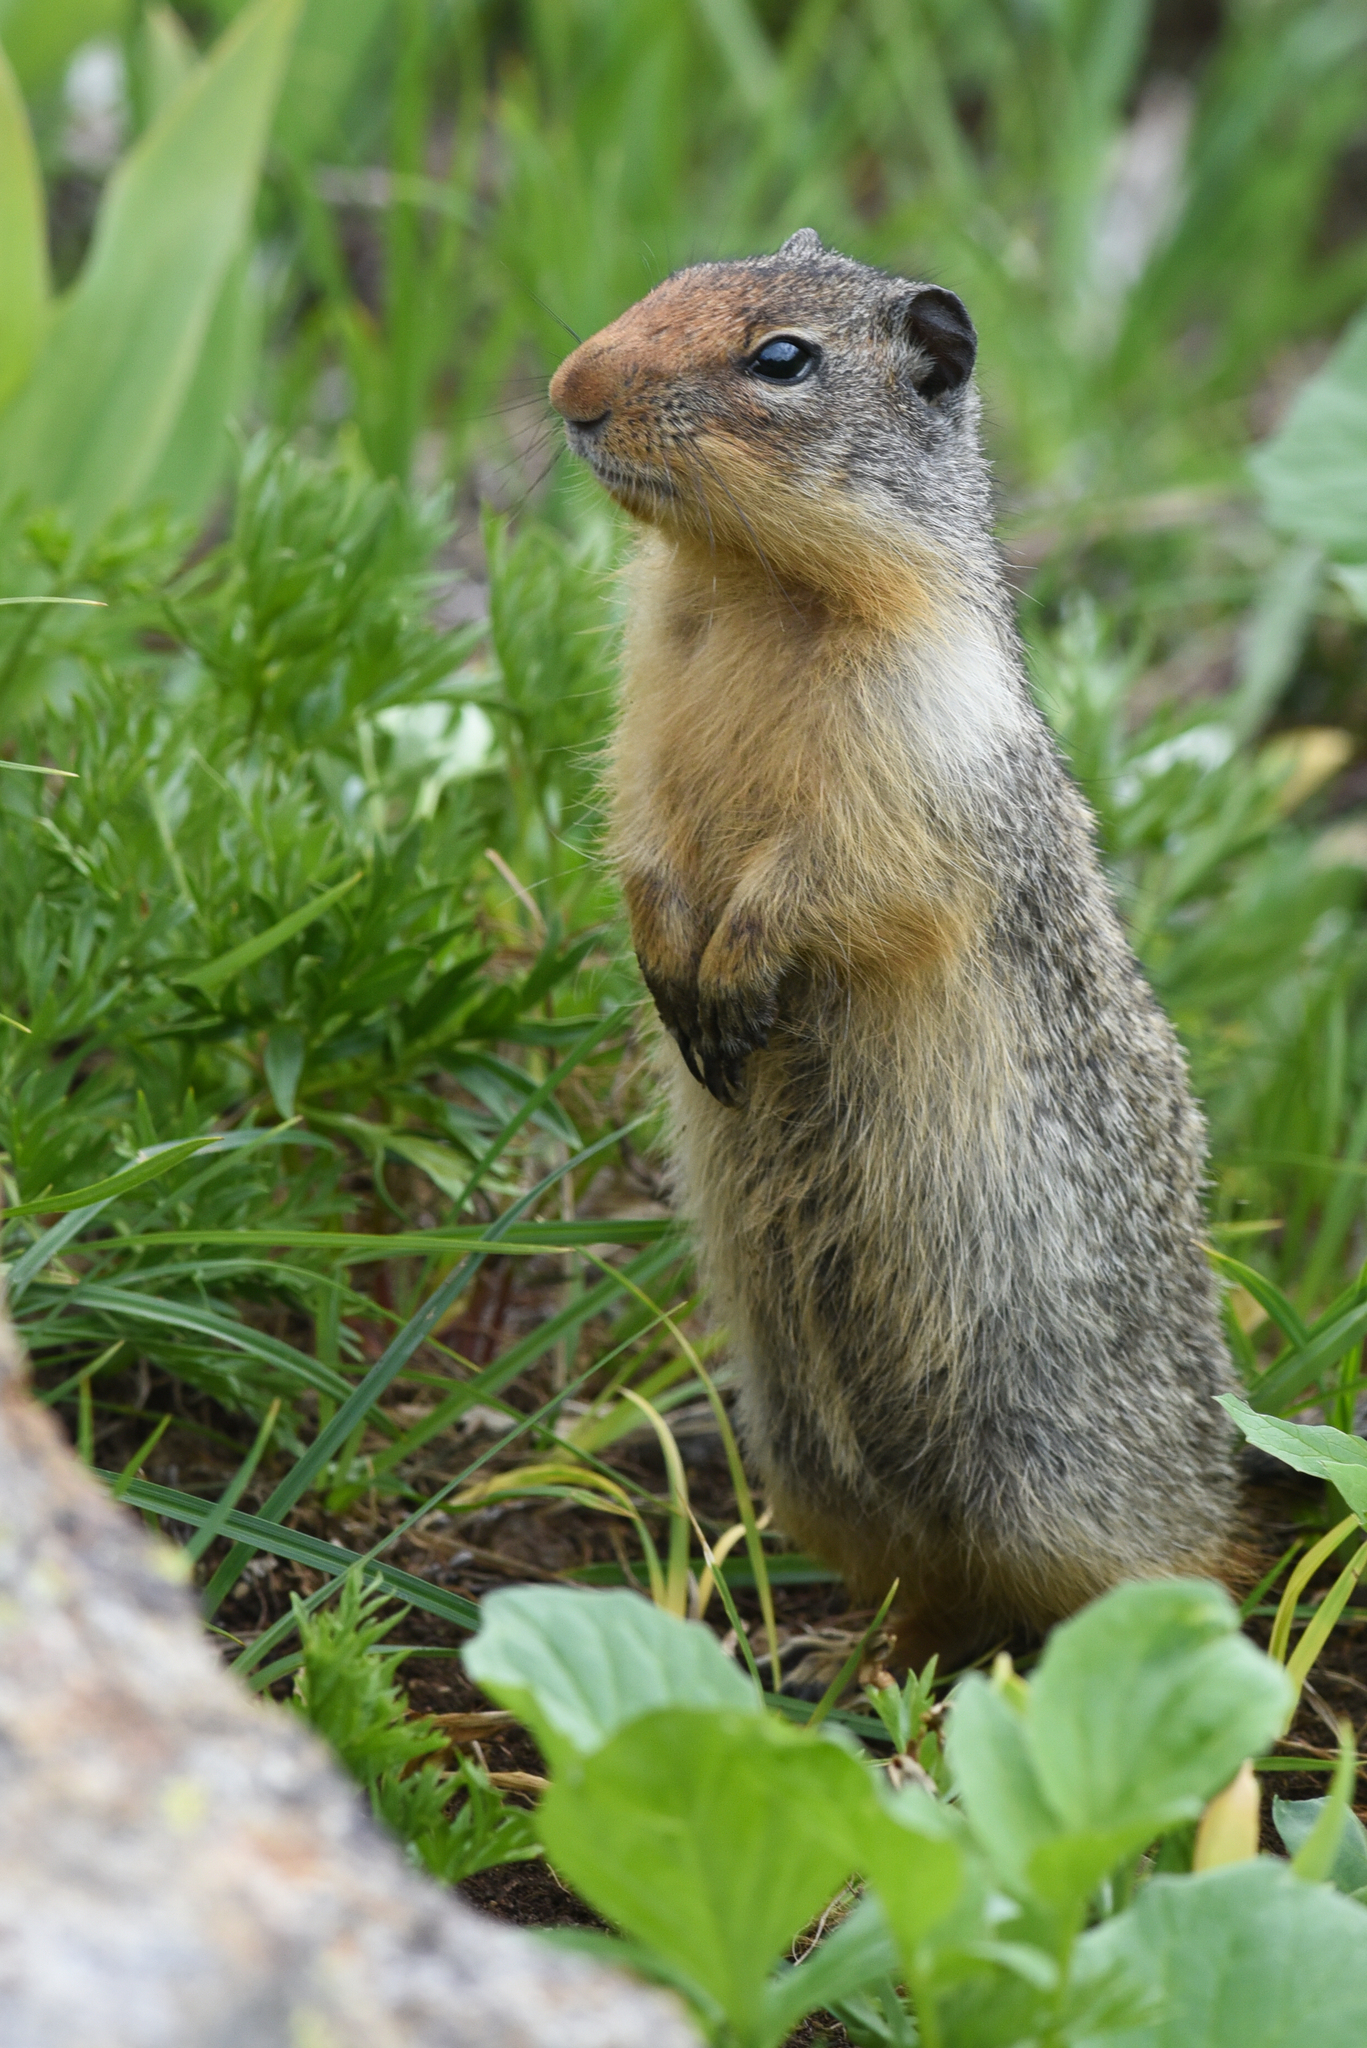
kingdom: Animalia
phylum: Chordata
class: Mammalia
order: Rodentia
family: Sciuridae
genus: Urocitellus
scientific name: Urocitellus columbianus
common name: Columbian ground squirrel
